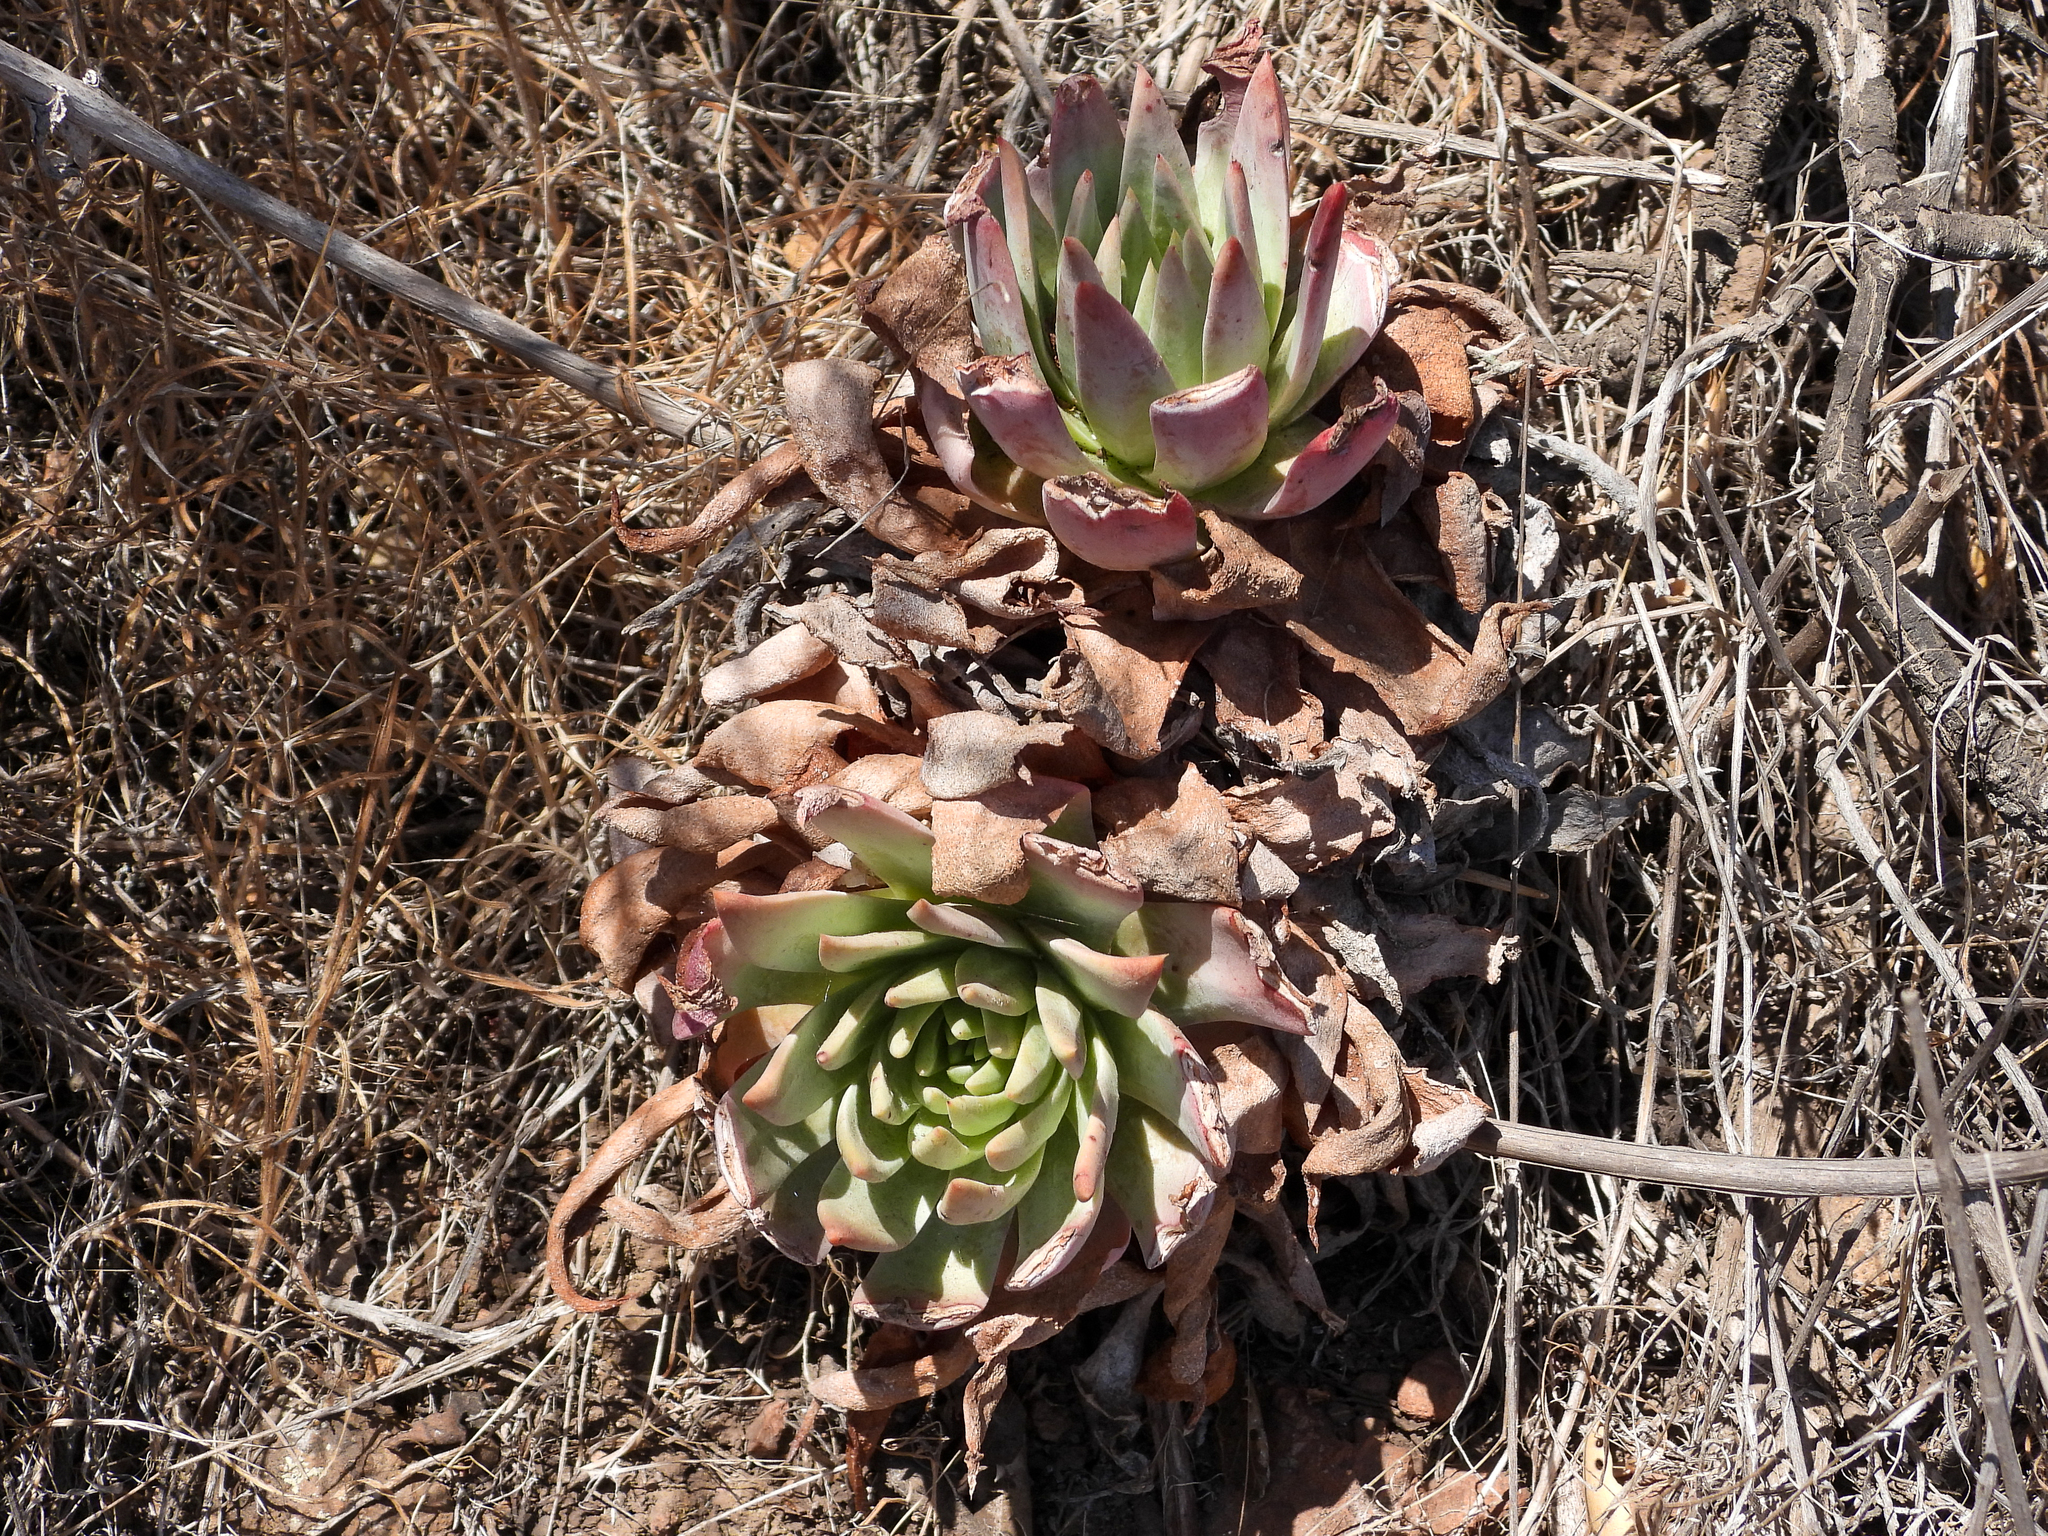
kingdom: Plantae
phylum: Tracheophyta
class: Magnoliopsida
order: Saxifragales
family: Crassulaceae
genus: Dudleya
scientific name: Dudleya greenei
